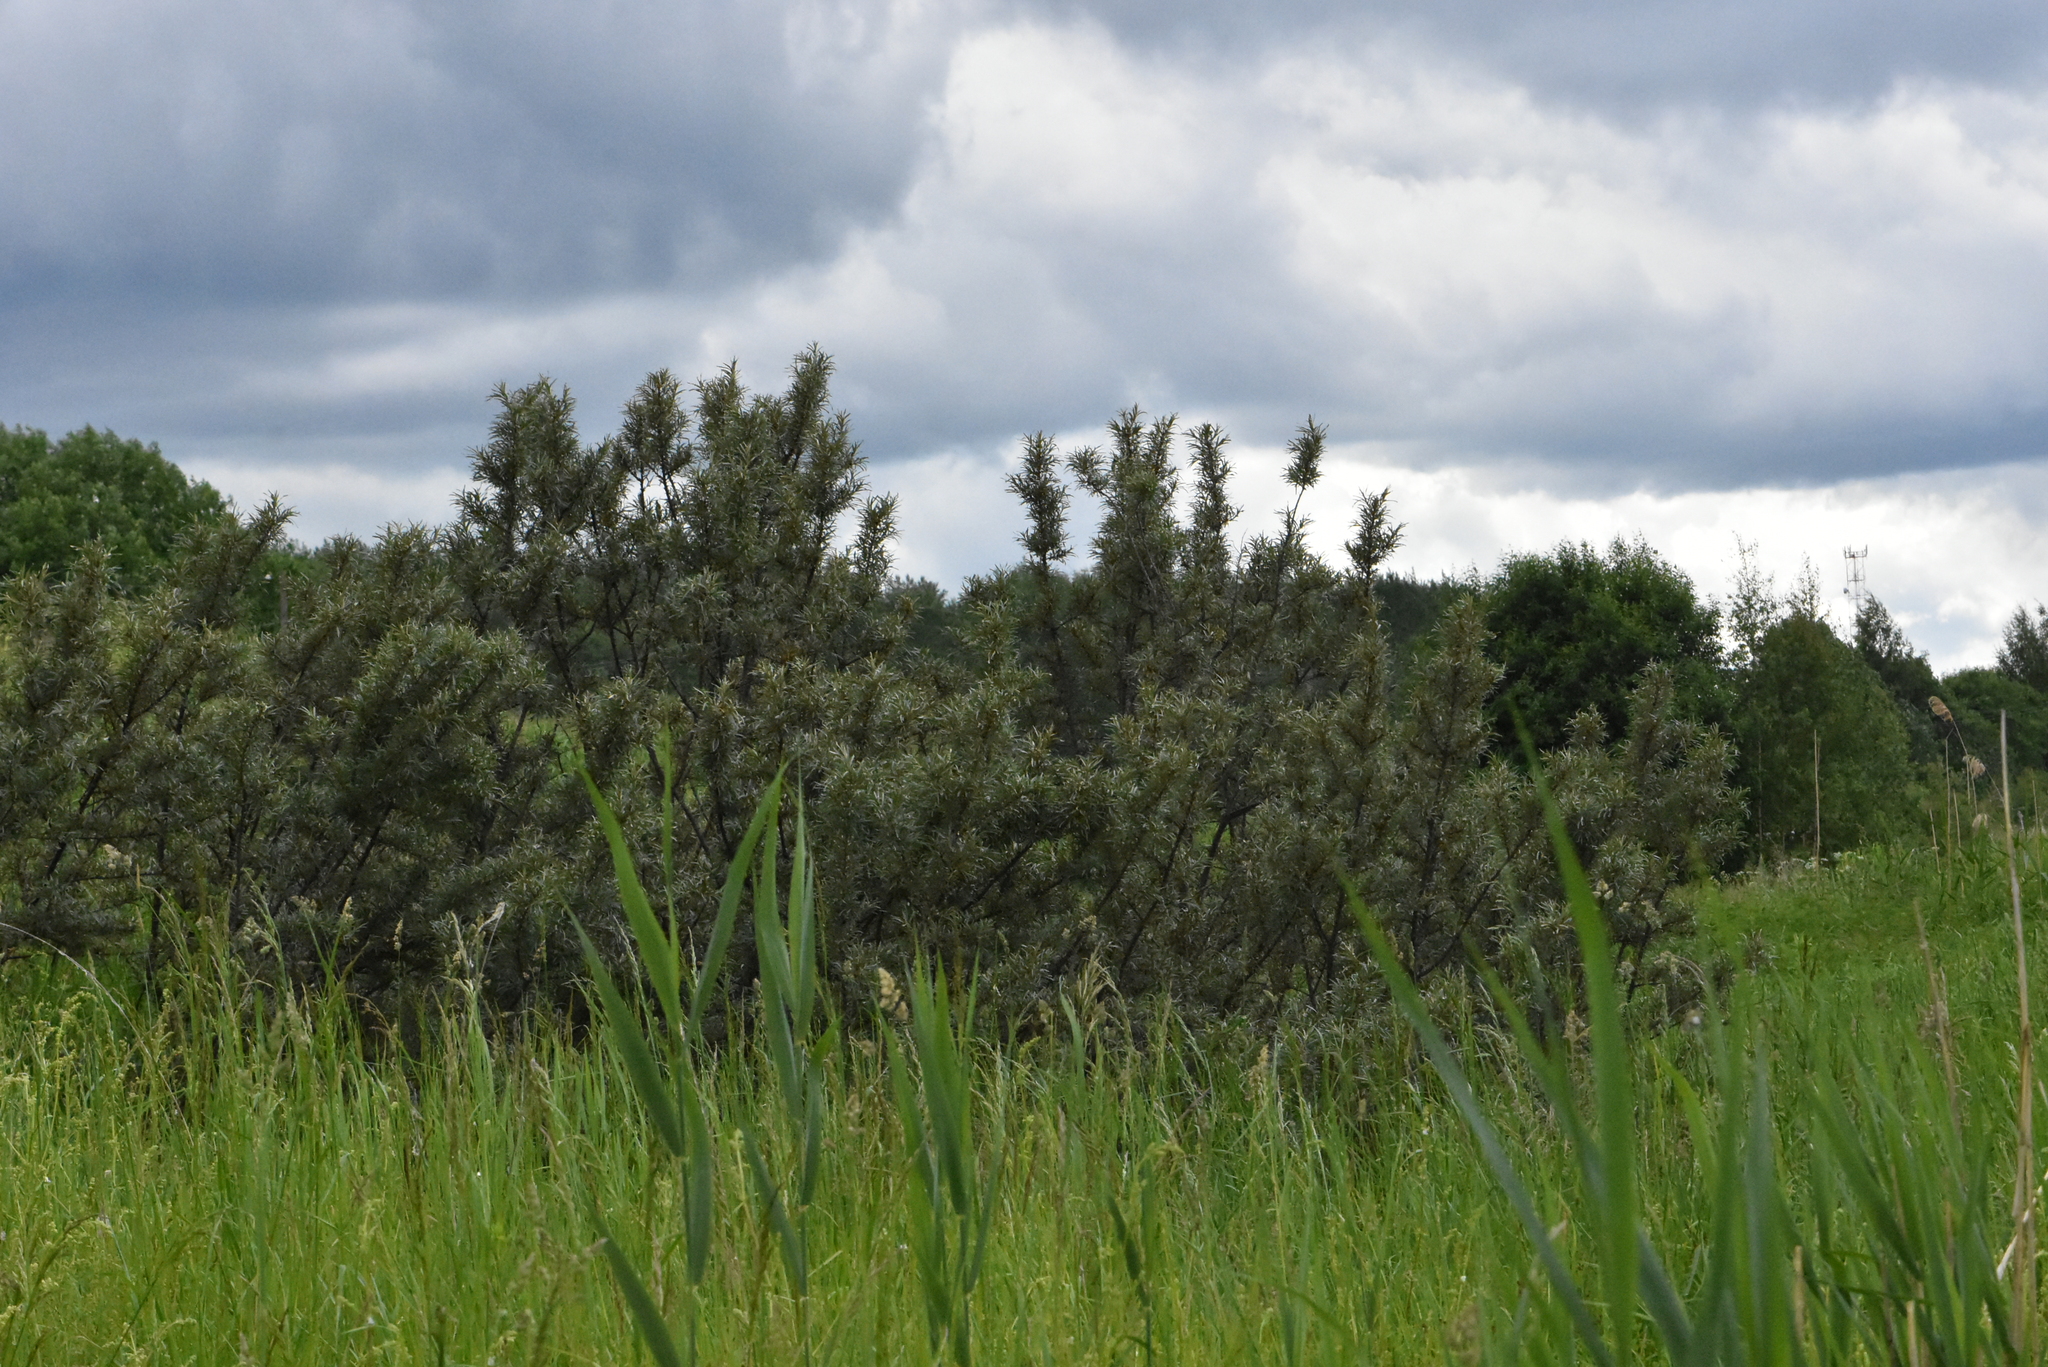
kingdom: Plantae
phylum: Tracheophyta
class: Magnoliopsida
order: Rosales
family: Elaeagnaceae
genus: Hippophae
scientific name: Hippophae rhamnoides
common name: Sea-buckthorn
